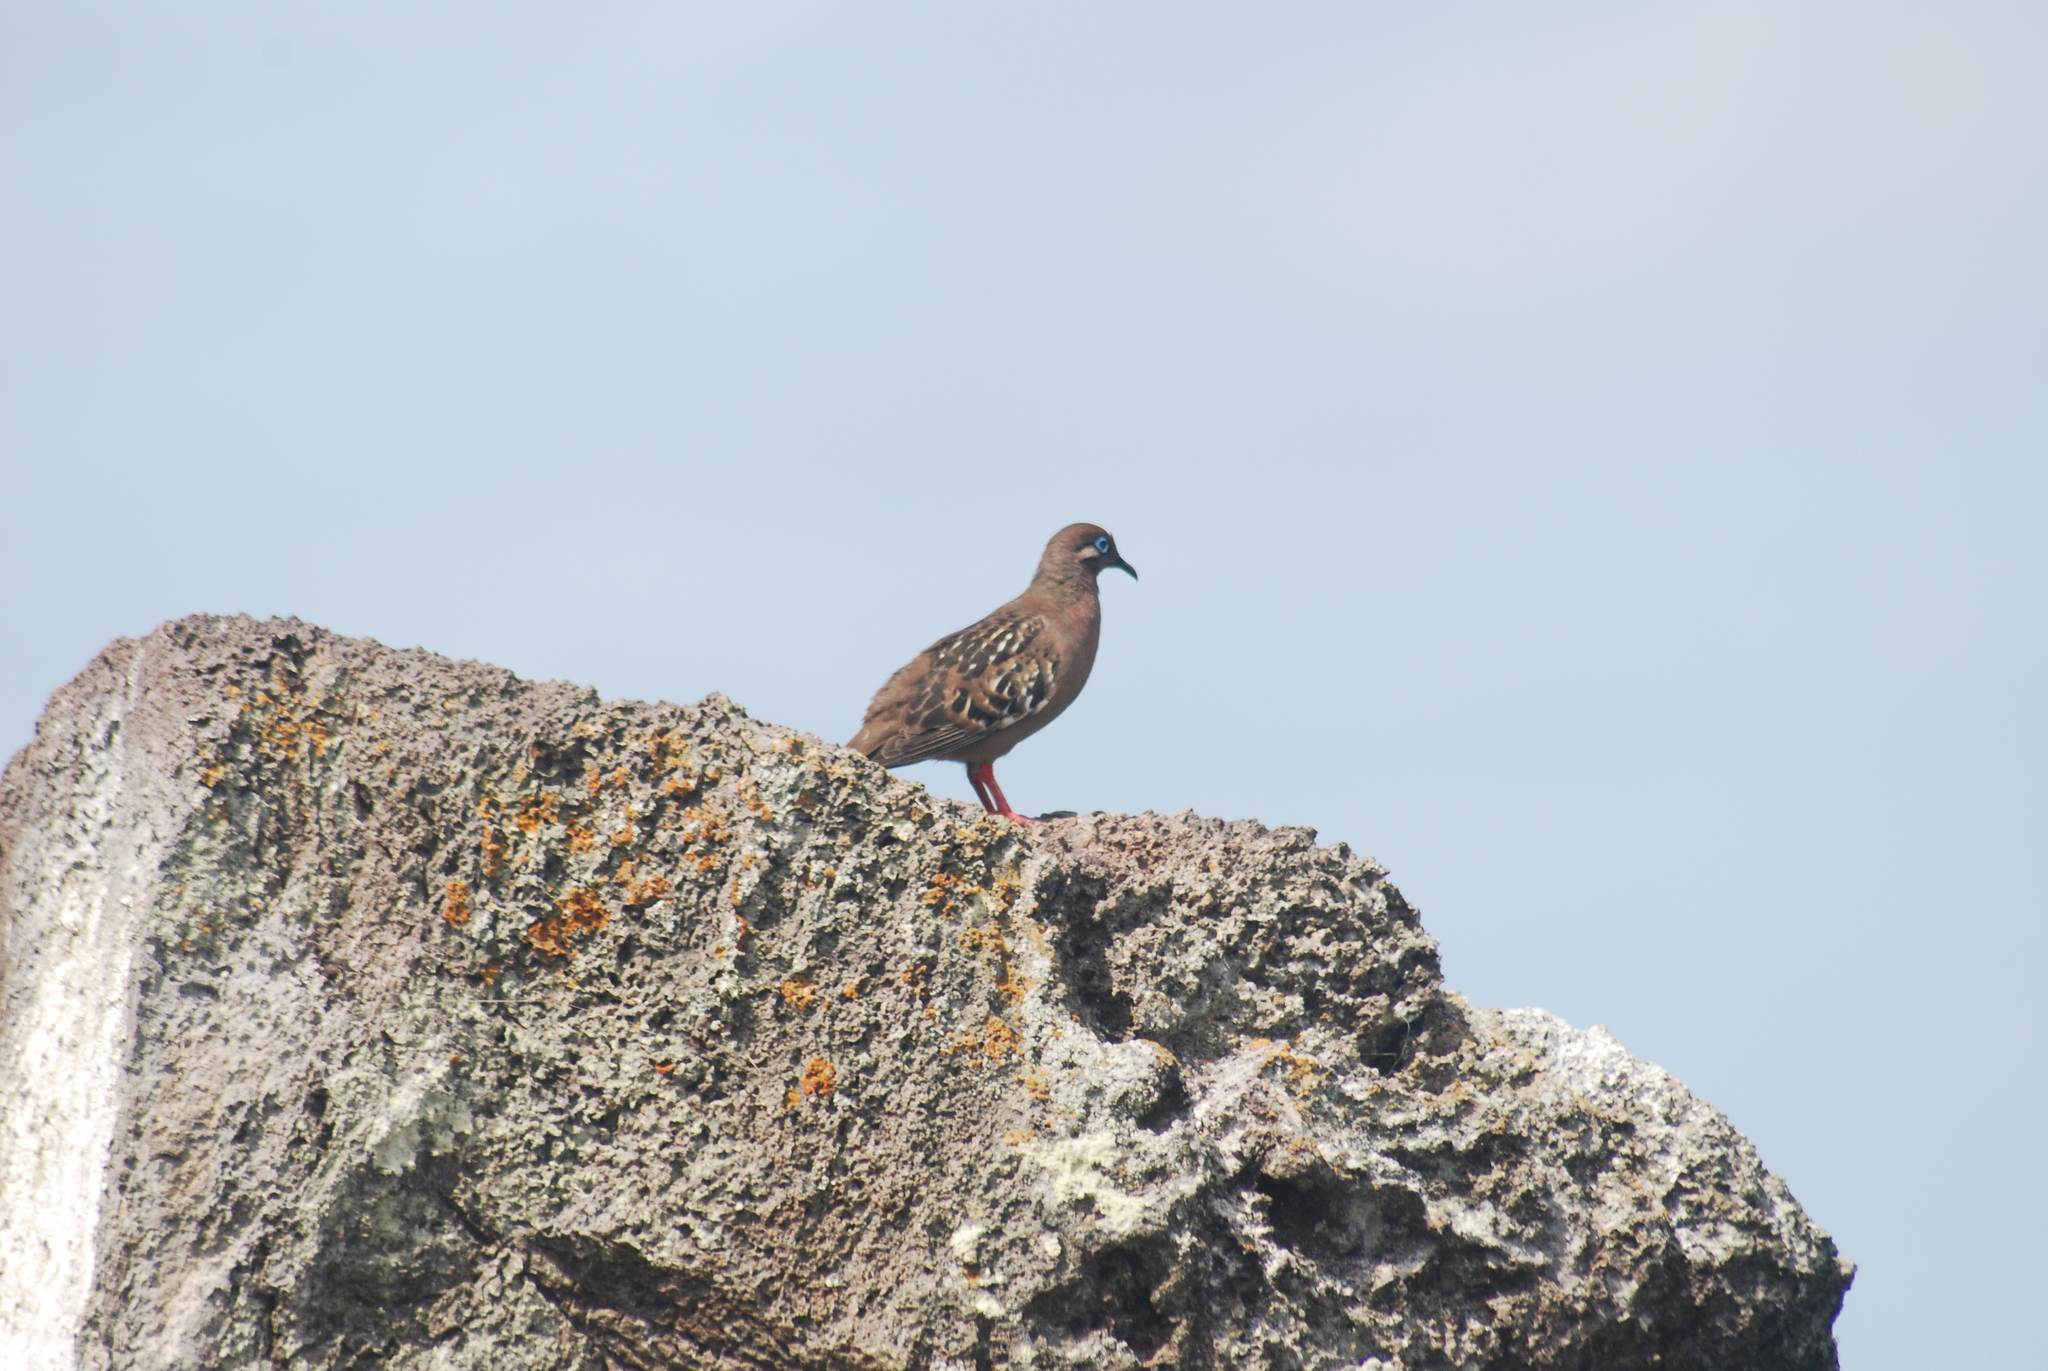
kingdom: Animalia
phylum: Chordata
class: Aves
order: Columbiformes
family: Columbidae
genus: Zenaida
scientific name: Zenaida galapagoensis
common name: Galapagos dove
